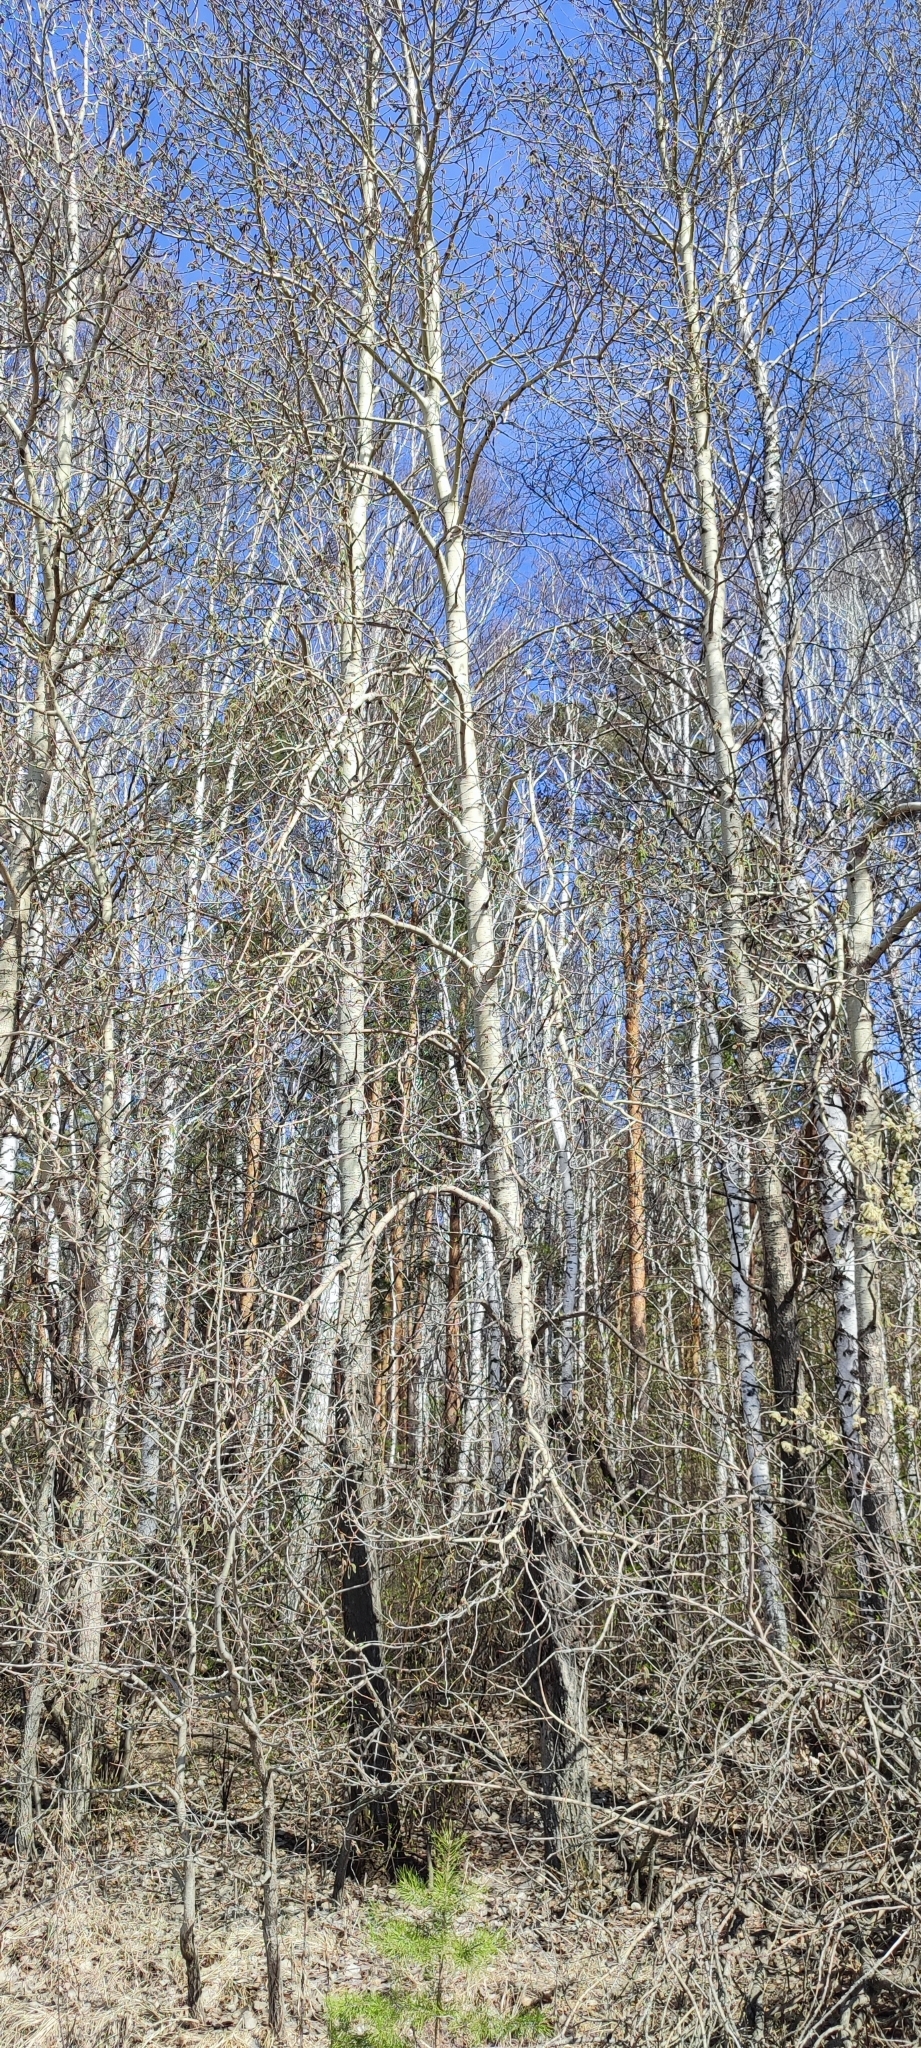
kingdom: Plantae
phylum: Tracheophyta
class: Magnoliopsida
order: Malpighiales
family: Salicaceae
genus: Populus
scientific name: Populus tremula
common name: European aspen
